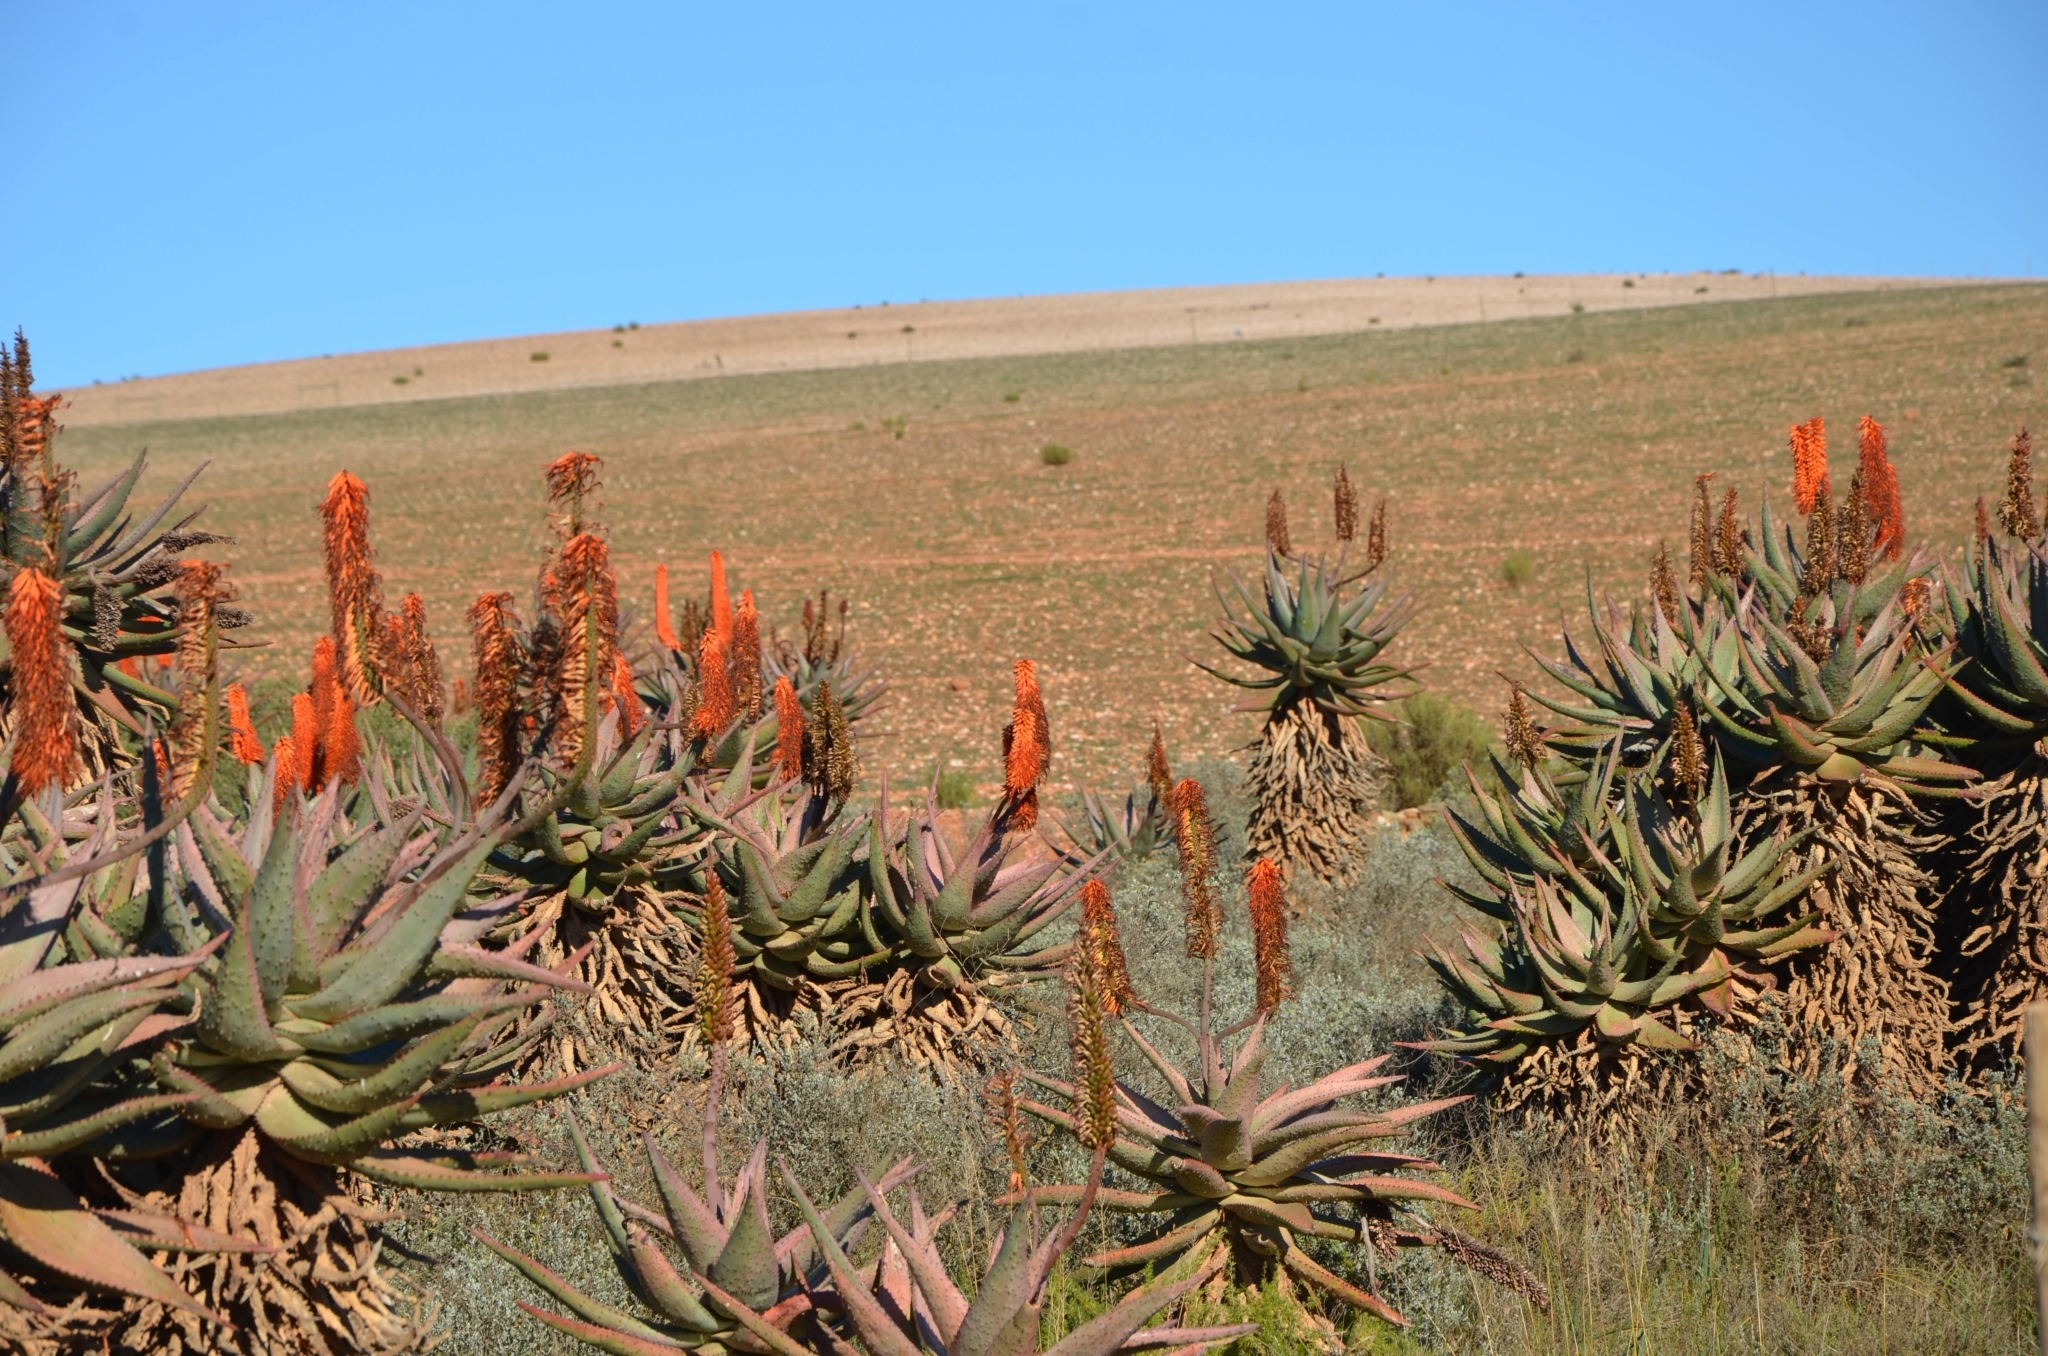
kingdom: Plantae
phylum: Tracheophyta
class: Liliopsida
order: Asparagales
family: Asphodelaceae
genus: Aloe
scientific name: Aloe ferox
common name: Bitter aloe
